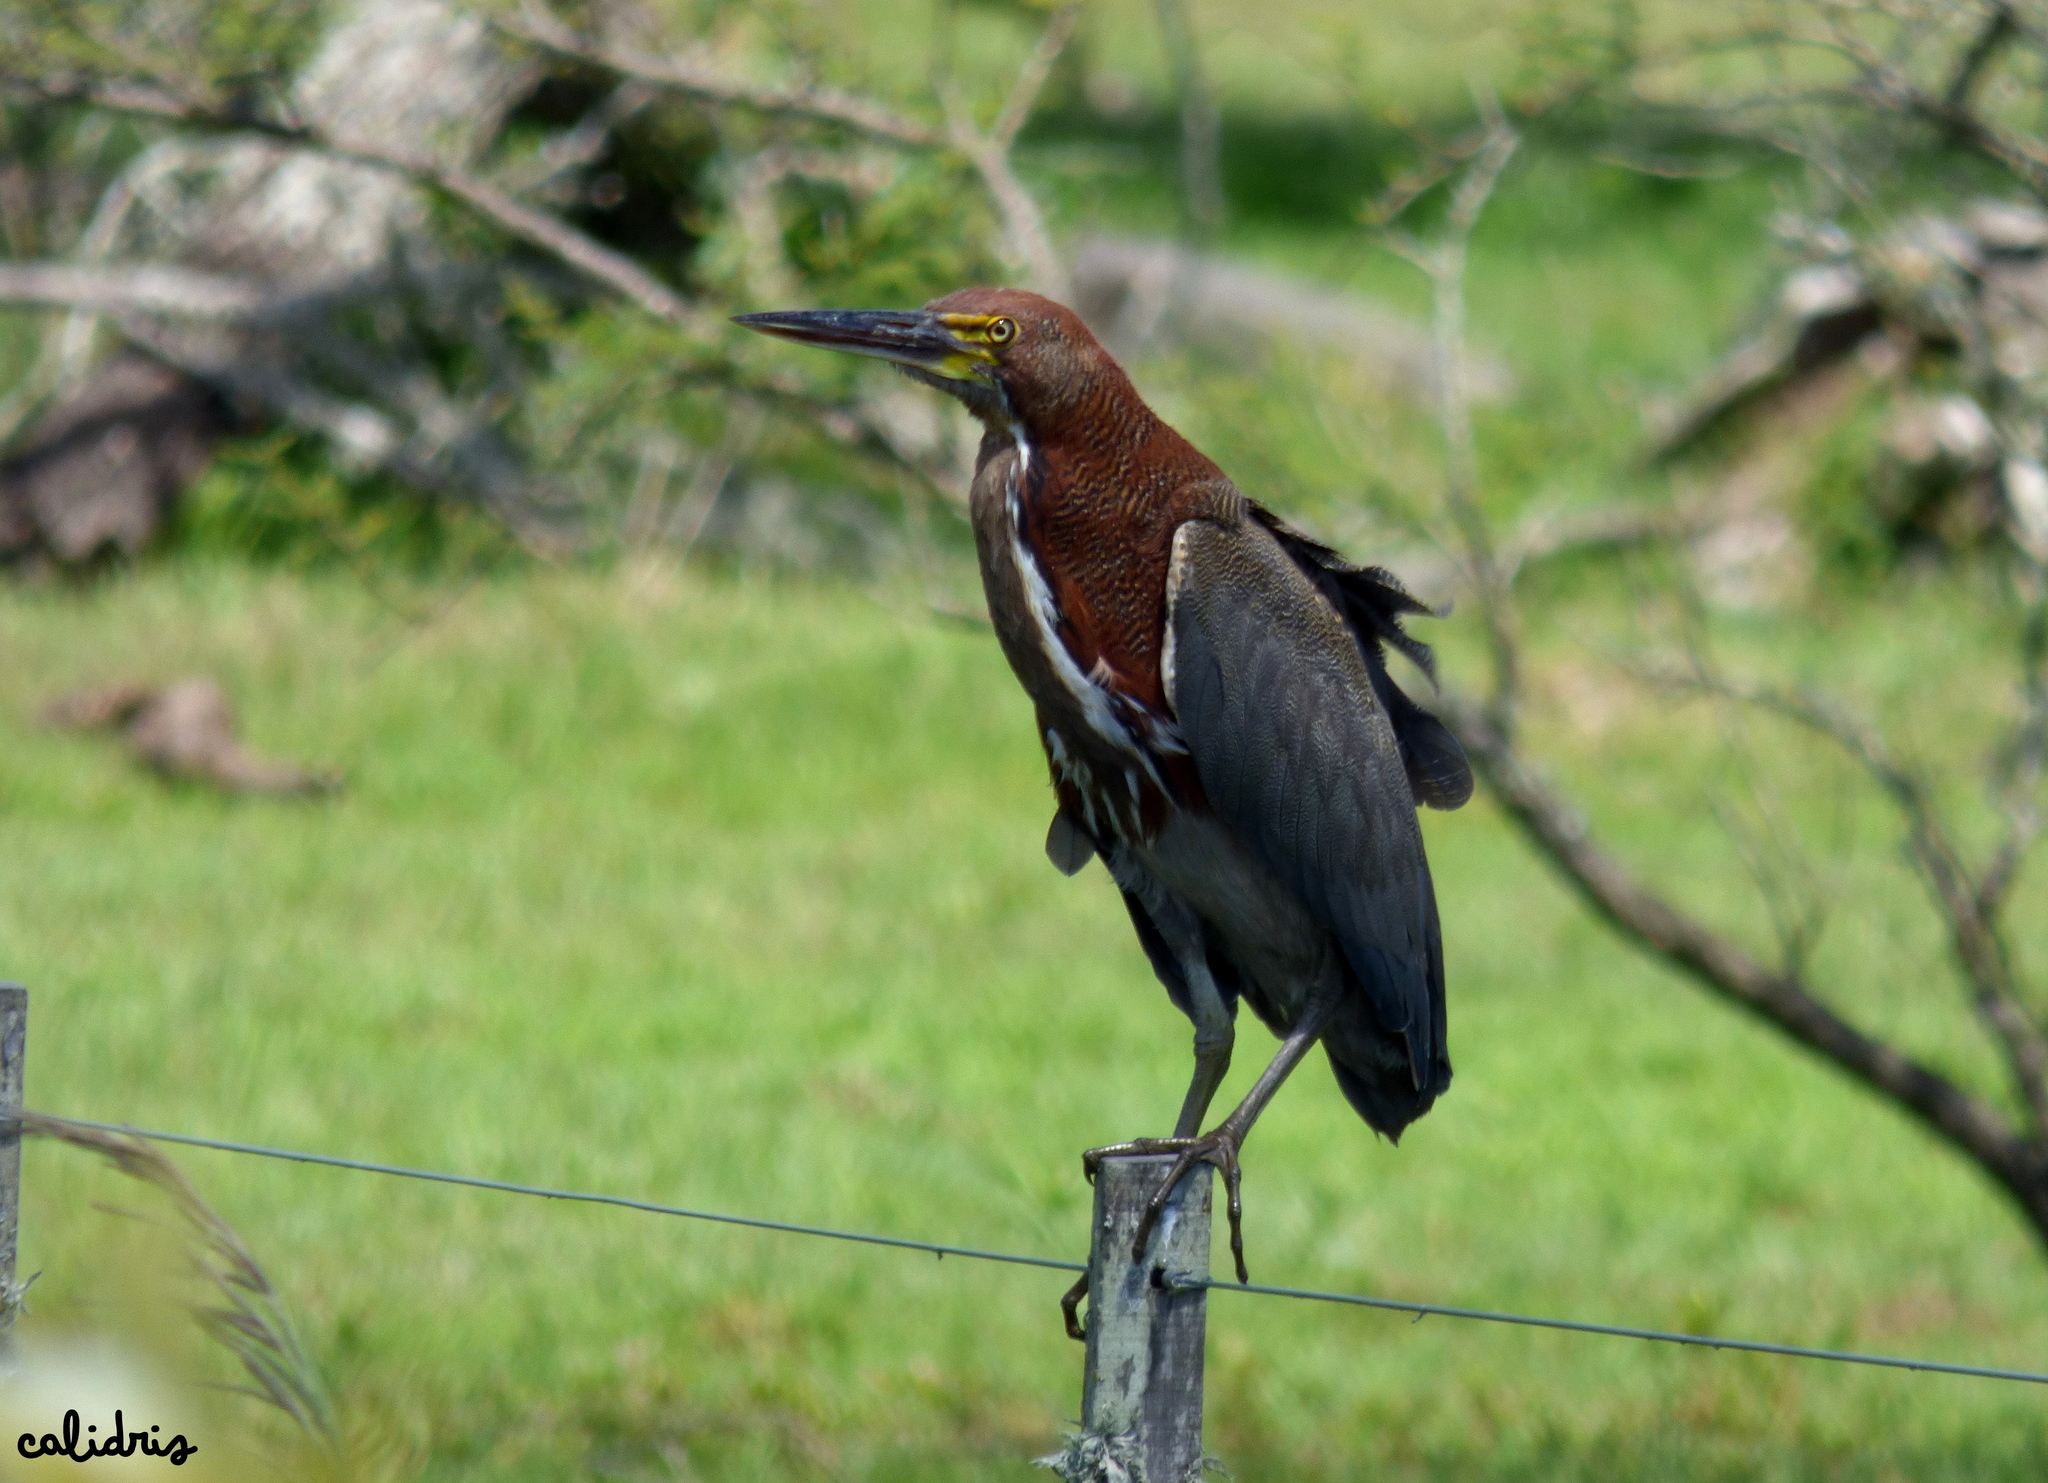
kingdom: Animalia
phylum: Chordata
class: Aves
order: Pelecaniformes
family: Ardeidae
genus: Tigrisoma
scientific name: Tigrisoma lineatum
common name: Rufescent tiger-heron
